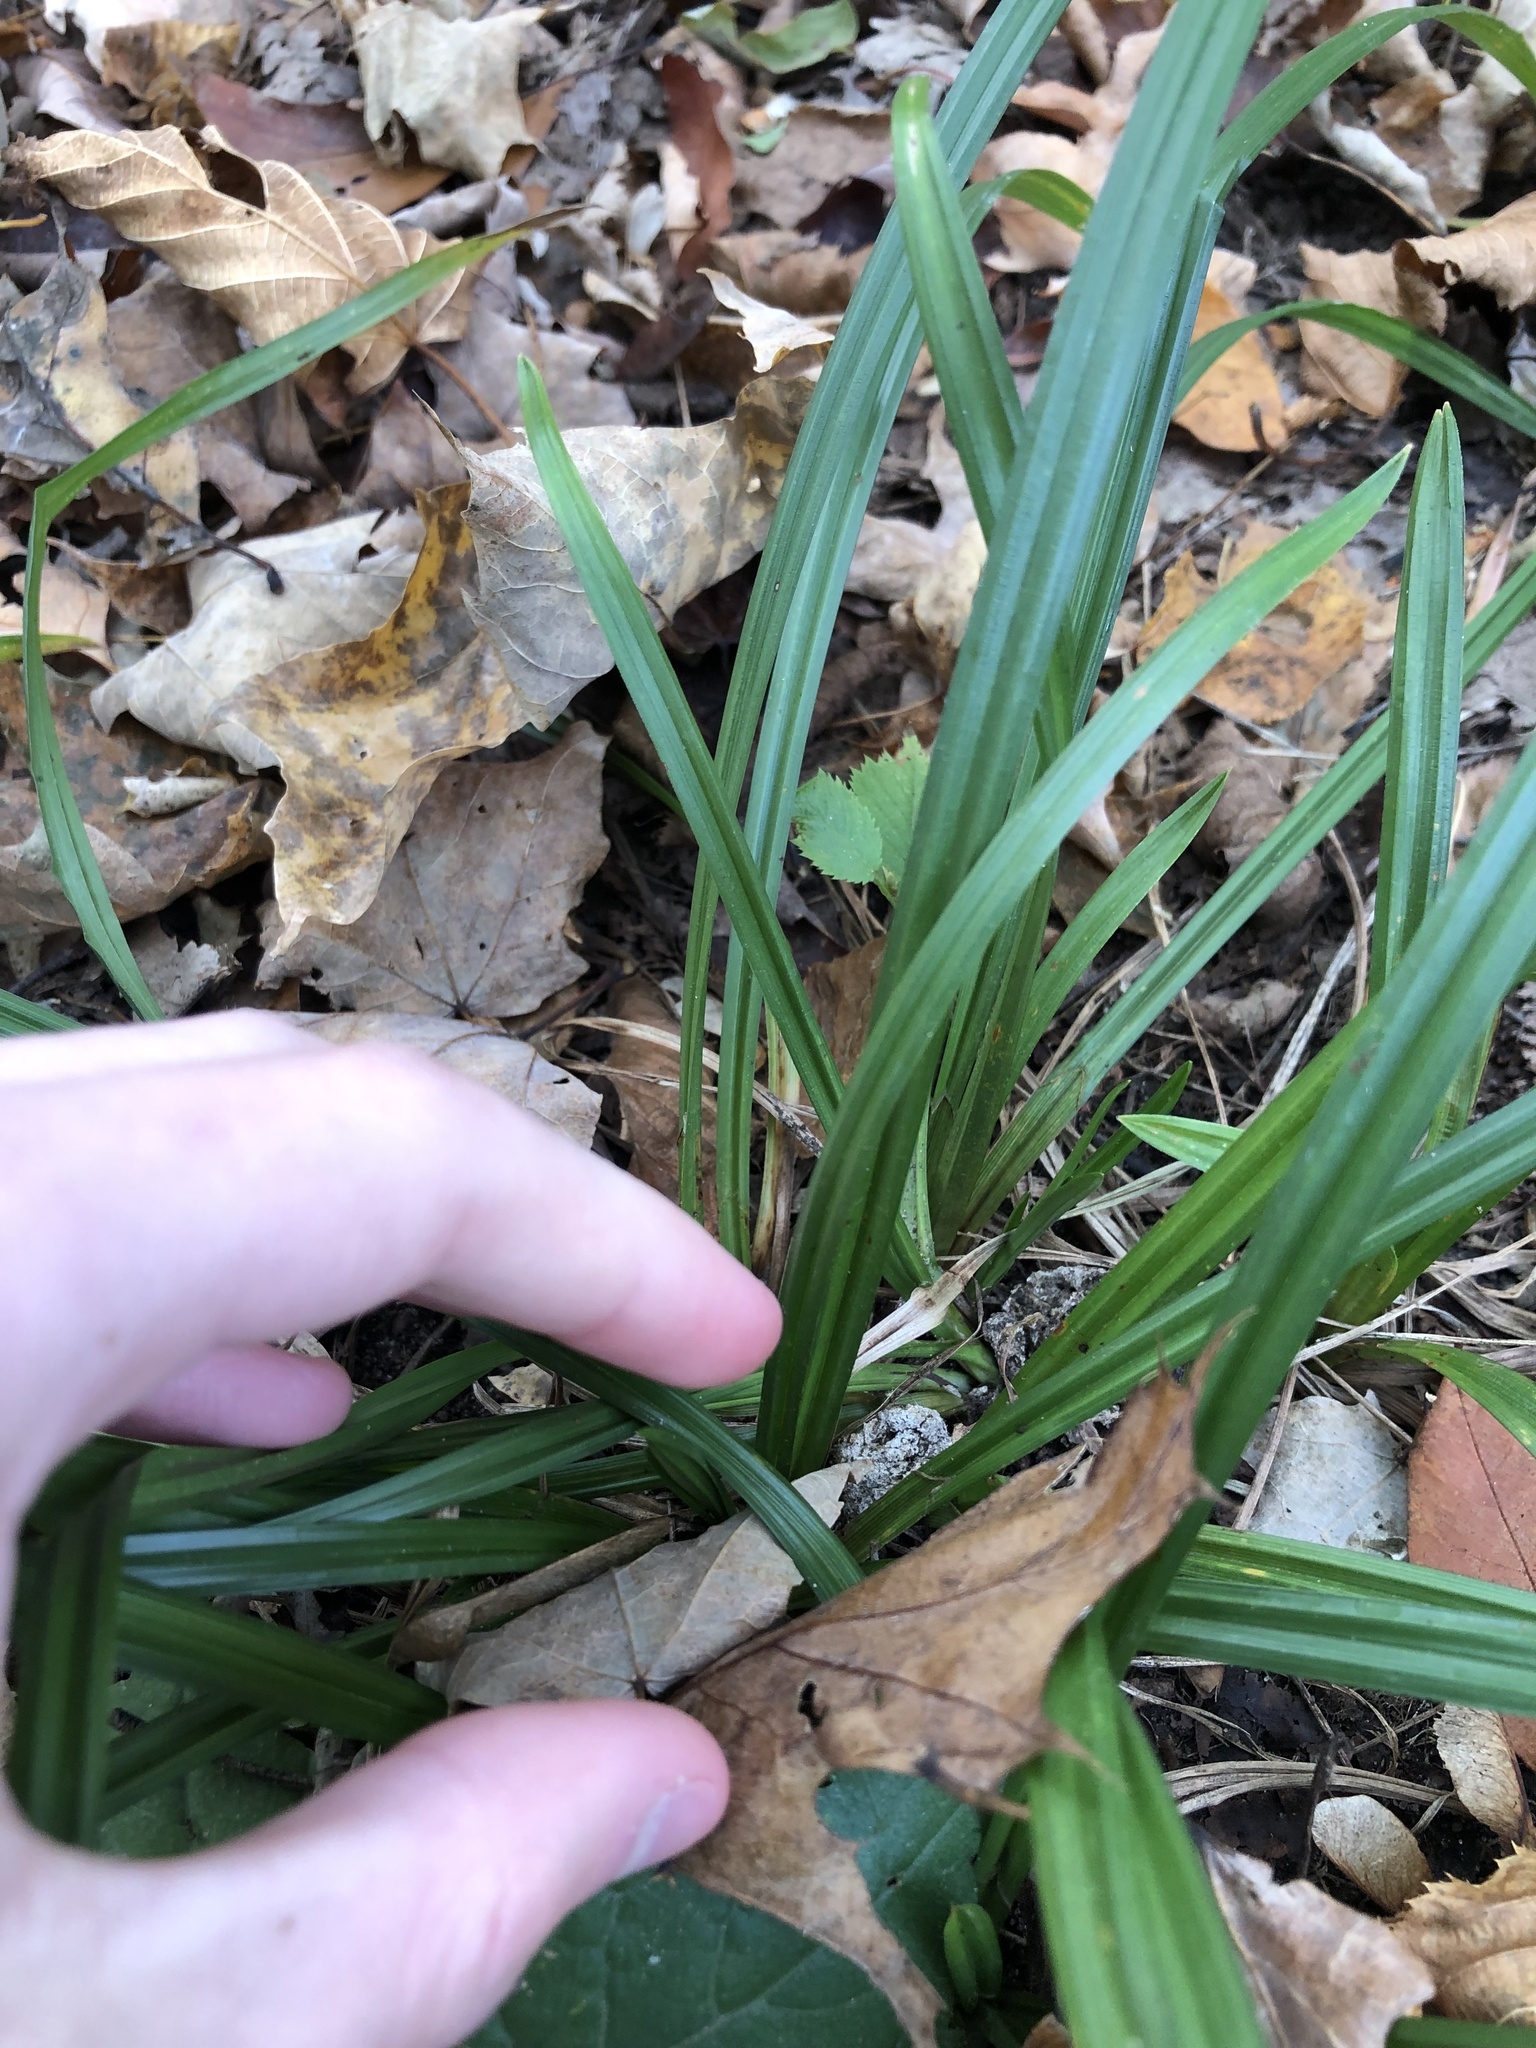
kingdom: Plantae
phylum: Tracheophyta
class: Liliopsida
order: Poales
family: Cyperaceae
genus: Carex
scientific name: Carex
